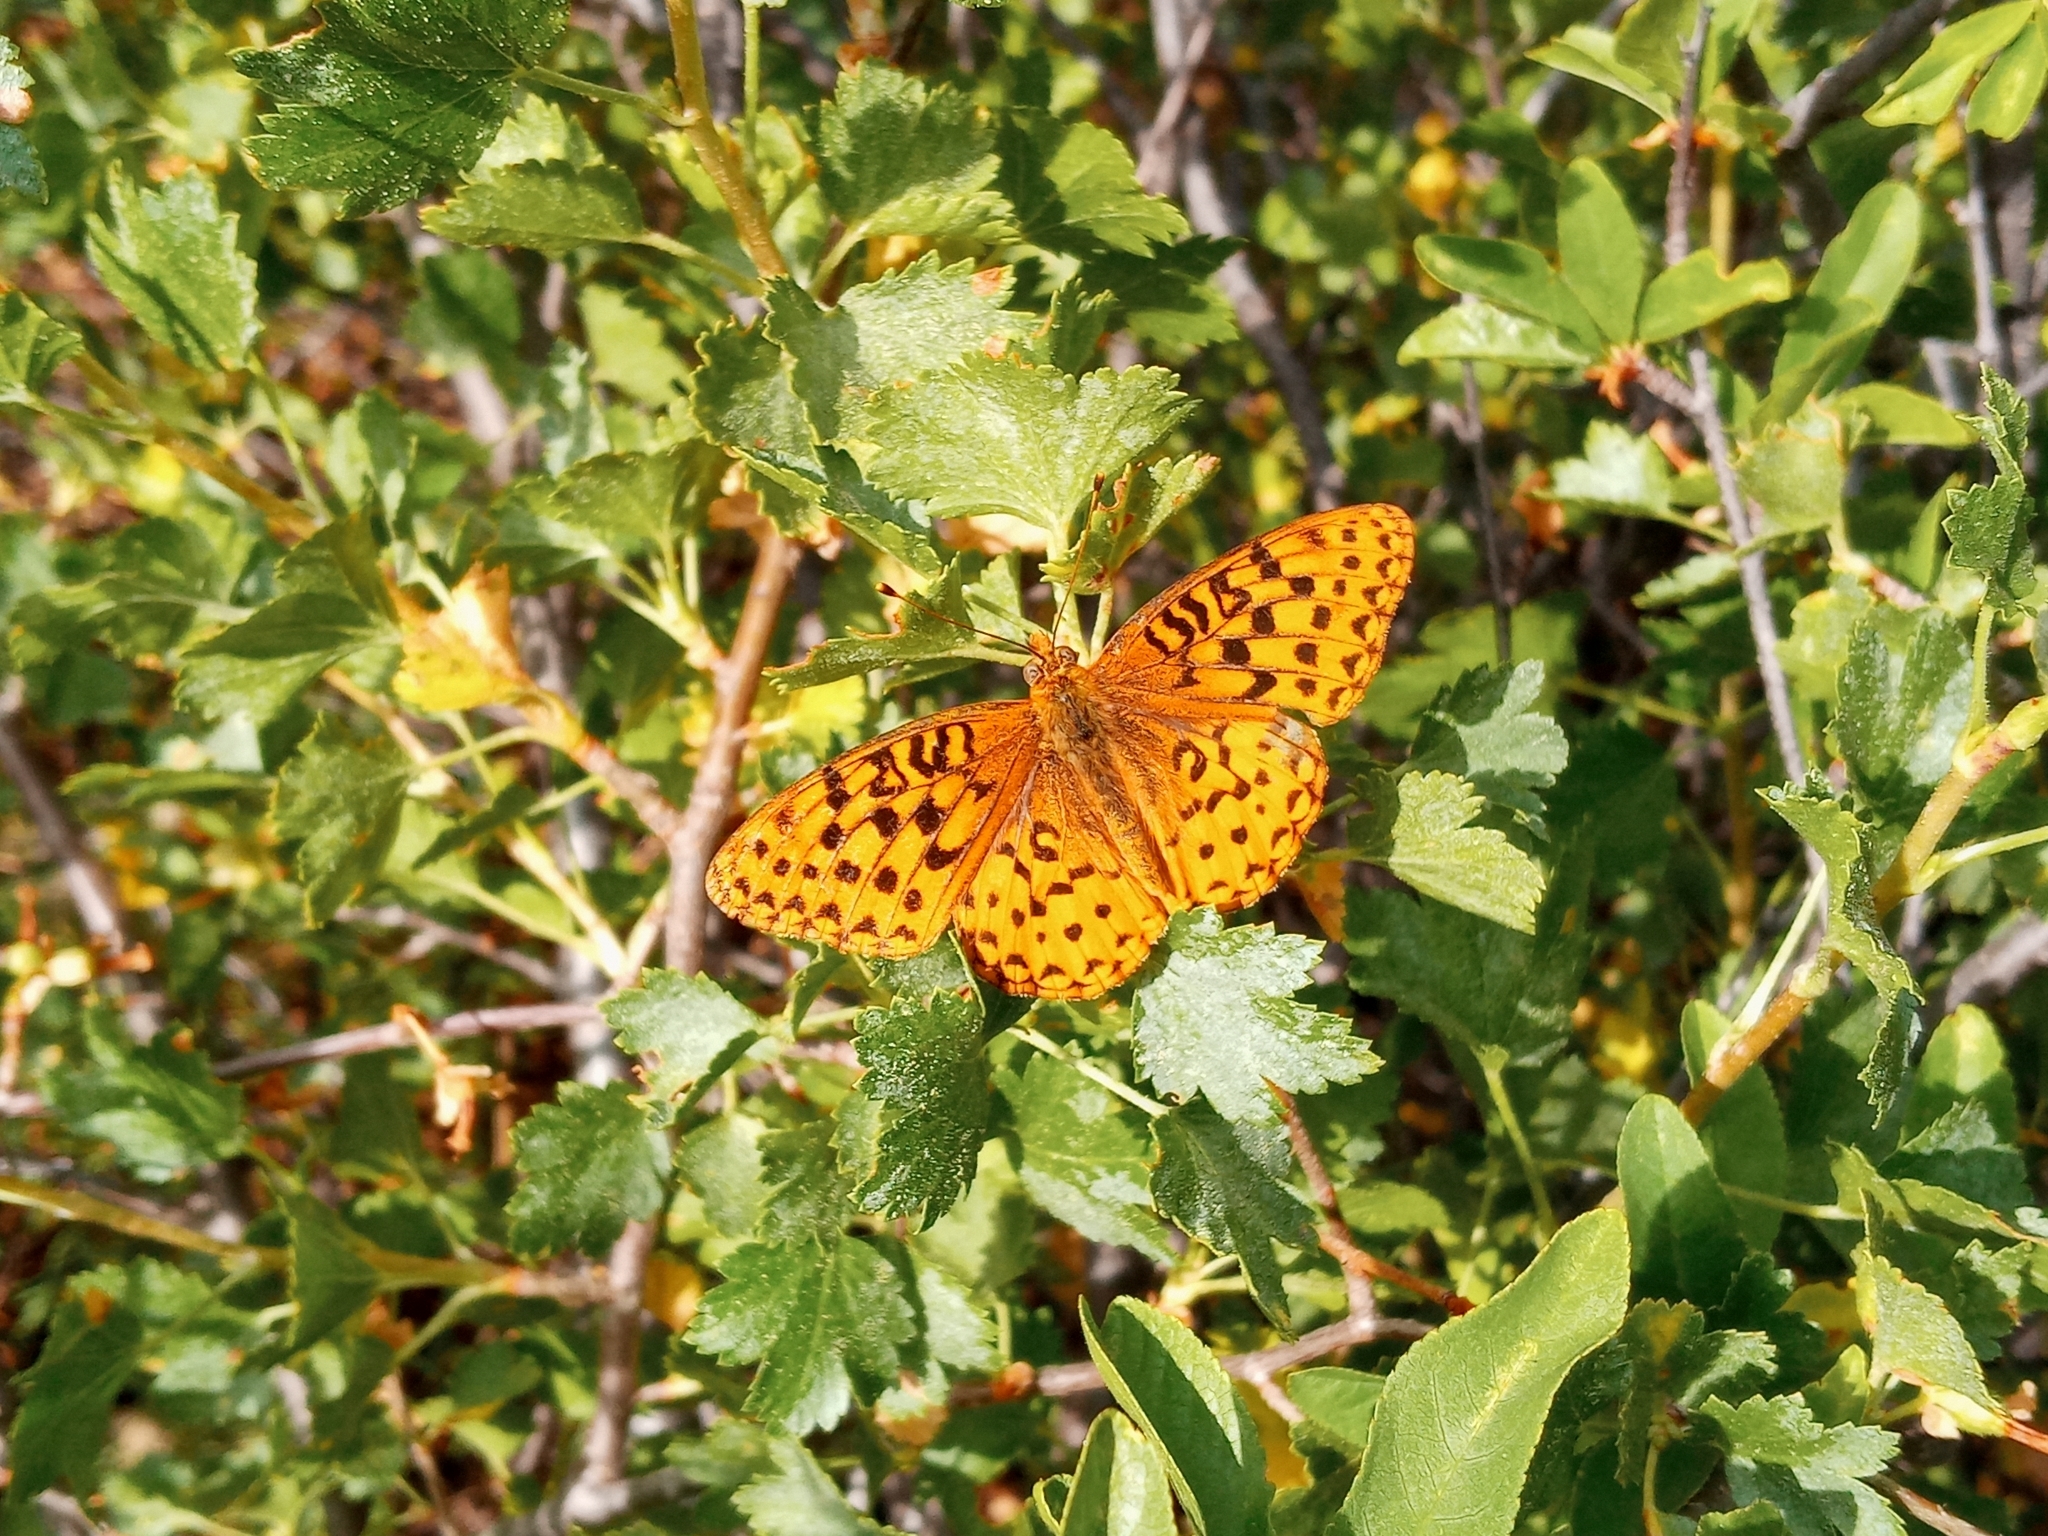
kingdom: Animalia
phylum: Arthropoda
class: Insecta
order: Lepidoptera
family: Nymphalidae
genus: Speyeria
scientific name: Speyeria atlantis
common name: Atlantis fritillary
